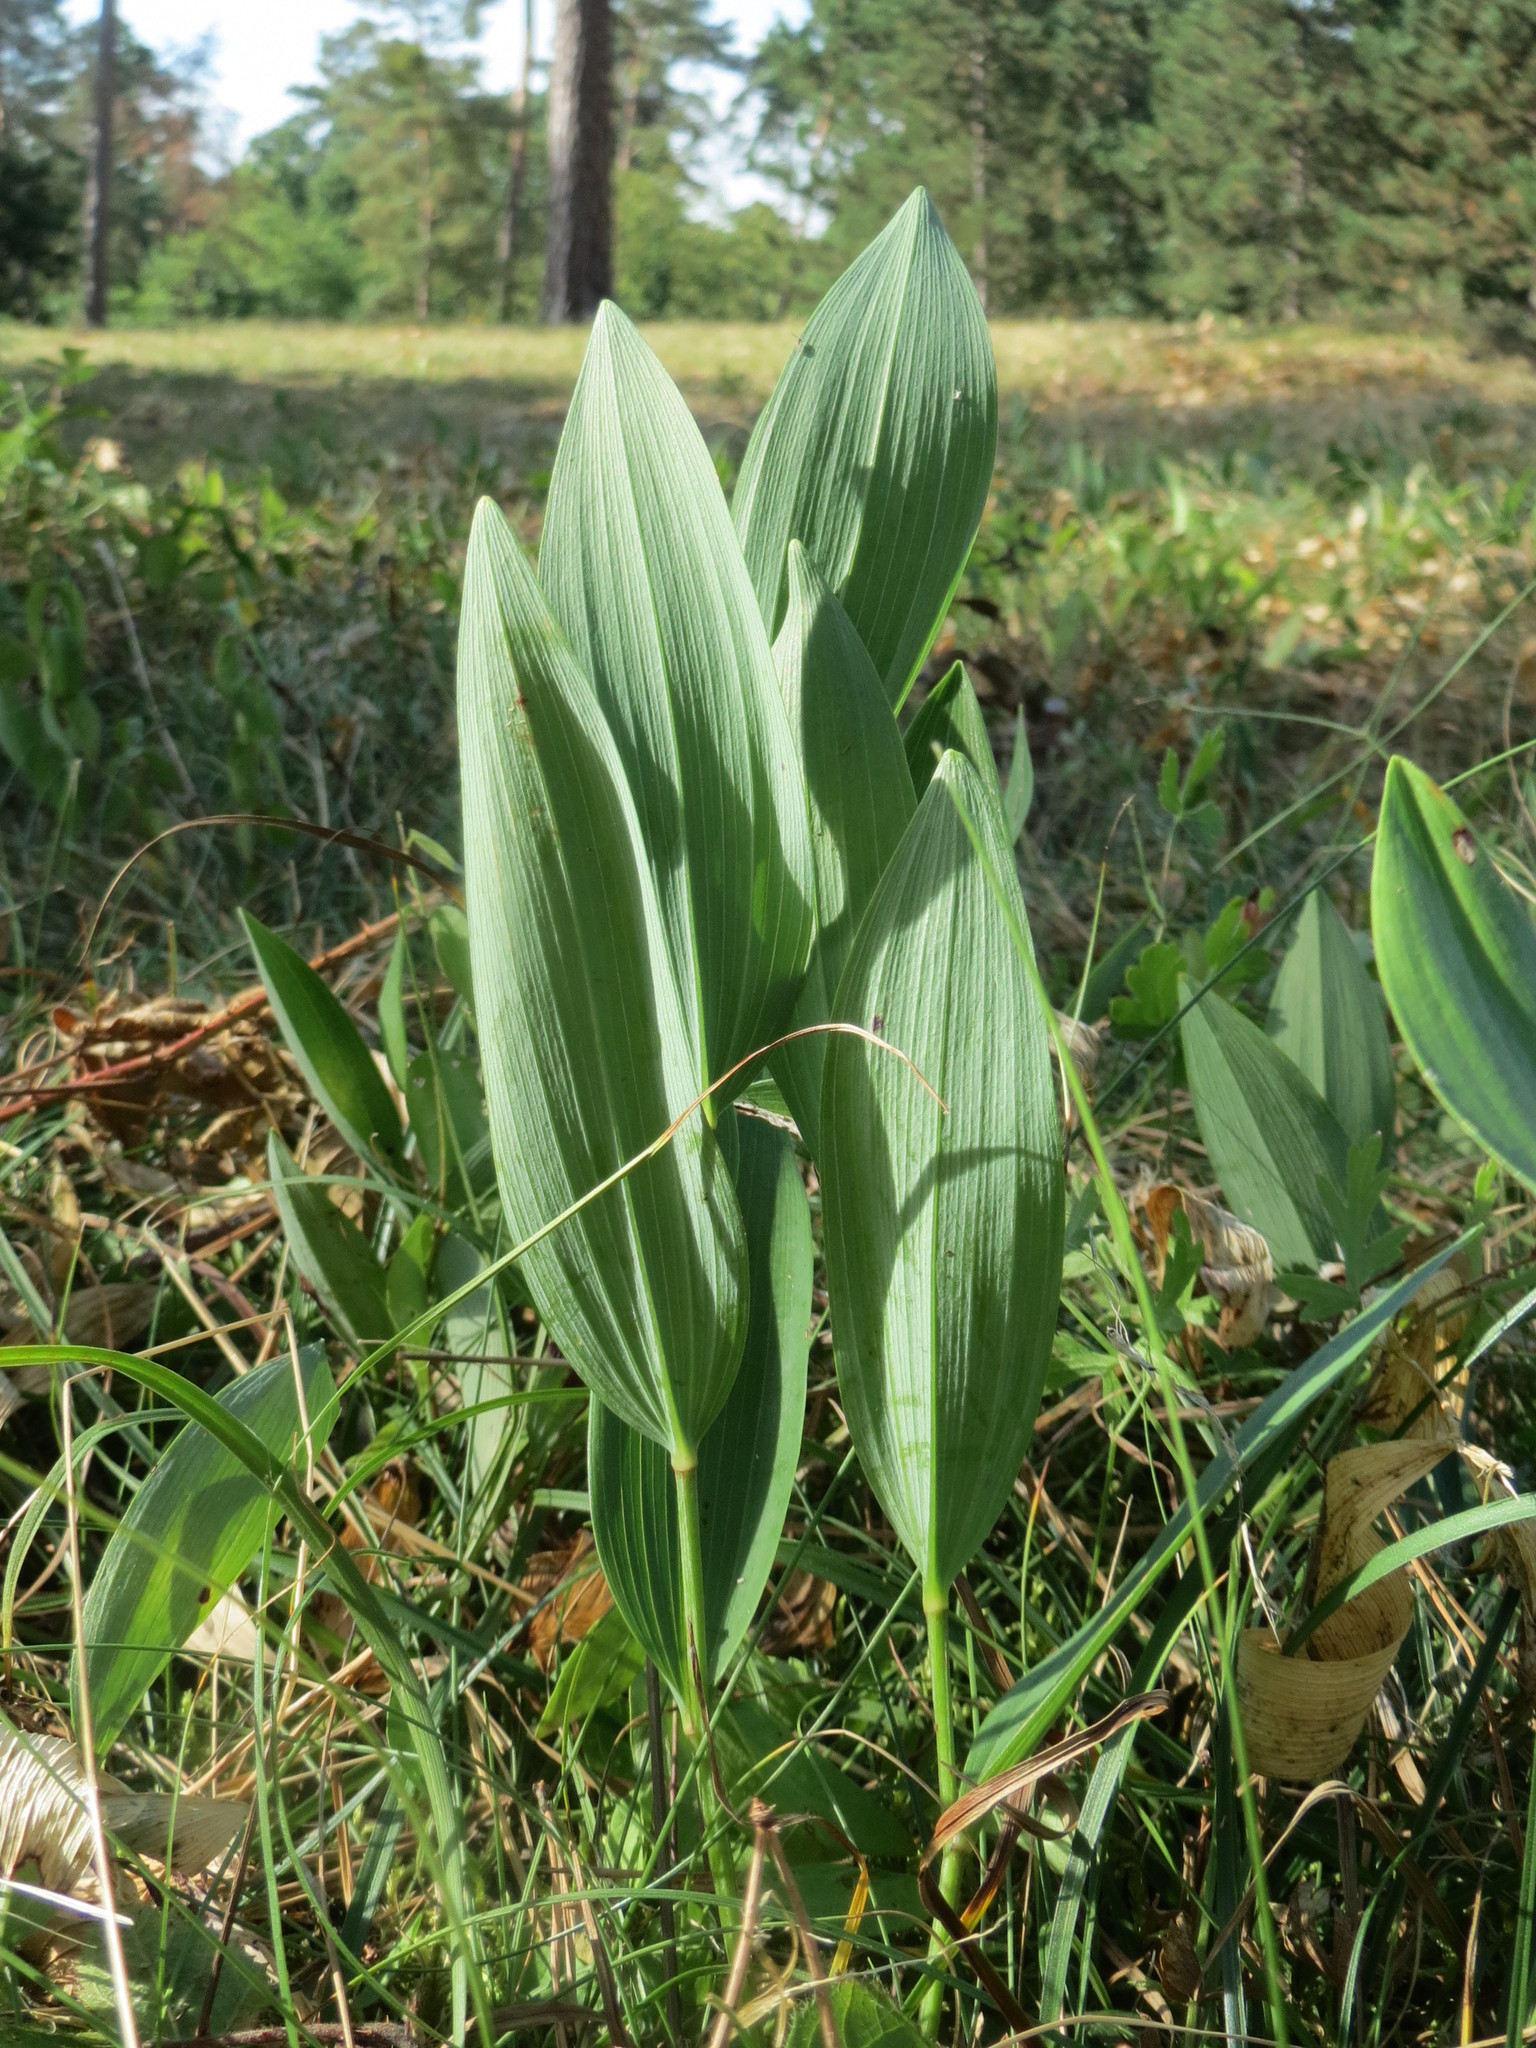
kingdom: Plantae
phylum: Tracheophyta
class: Liliopsida
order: Asparagales
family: Asparagaceae
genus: Polygonatum
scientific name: Polygonatum odoratum
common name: Angular solomon's-seal
